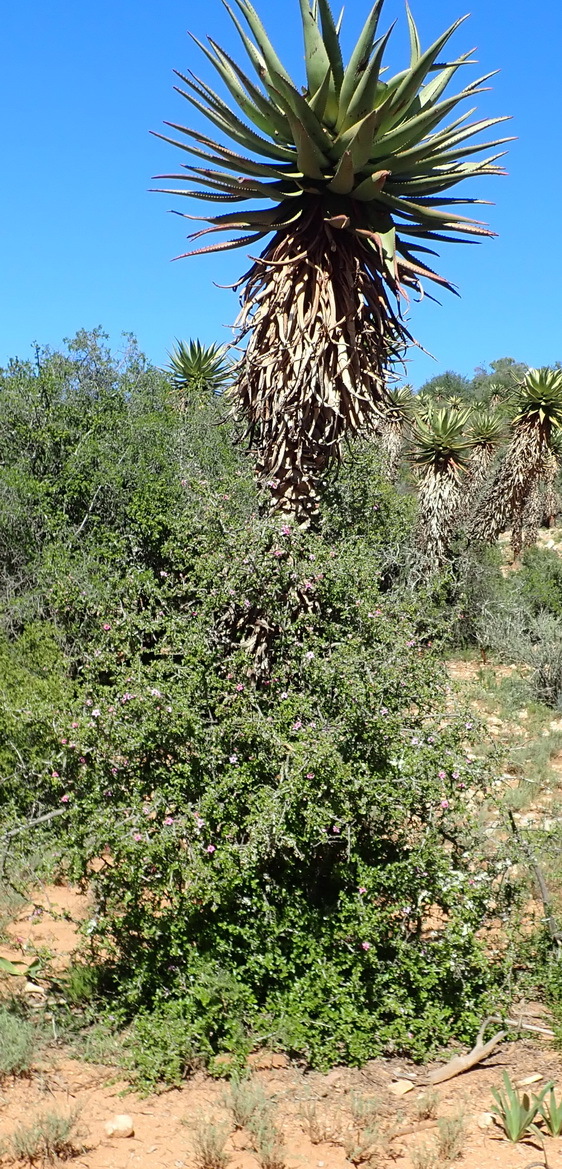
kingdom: Plantae
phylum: Tracheophyta
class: Magnoliopsida
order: Malvales
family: Malvaceae
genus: Grewia
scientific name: Grewia robusta
